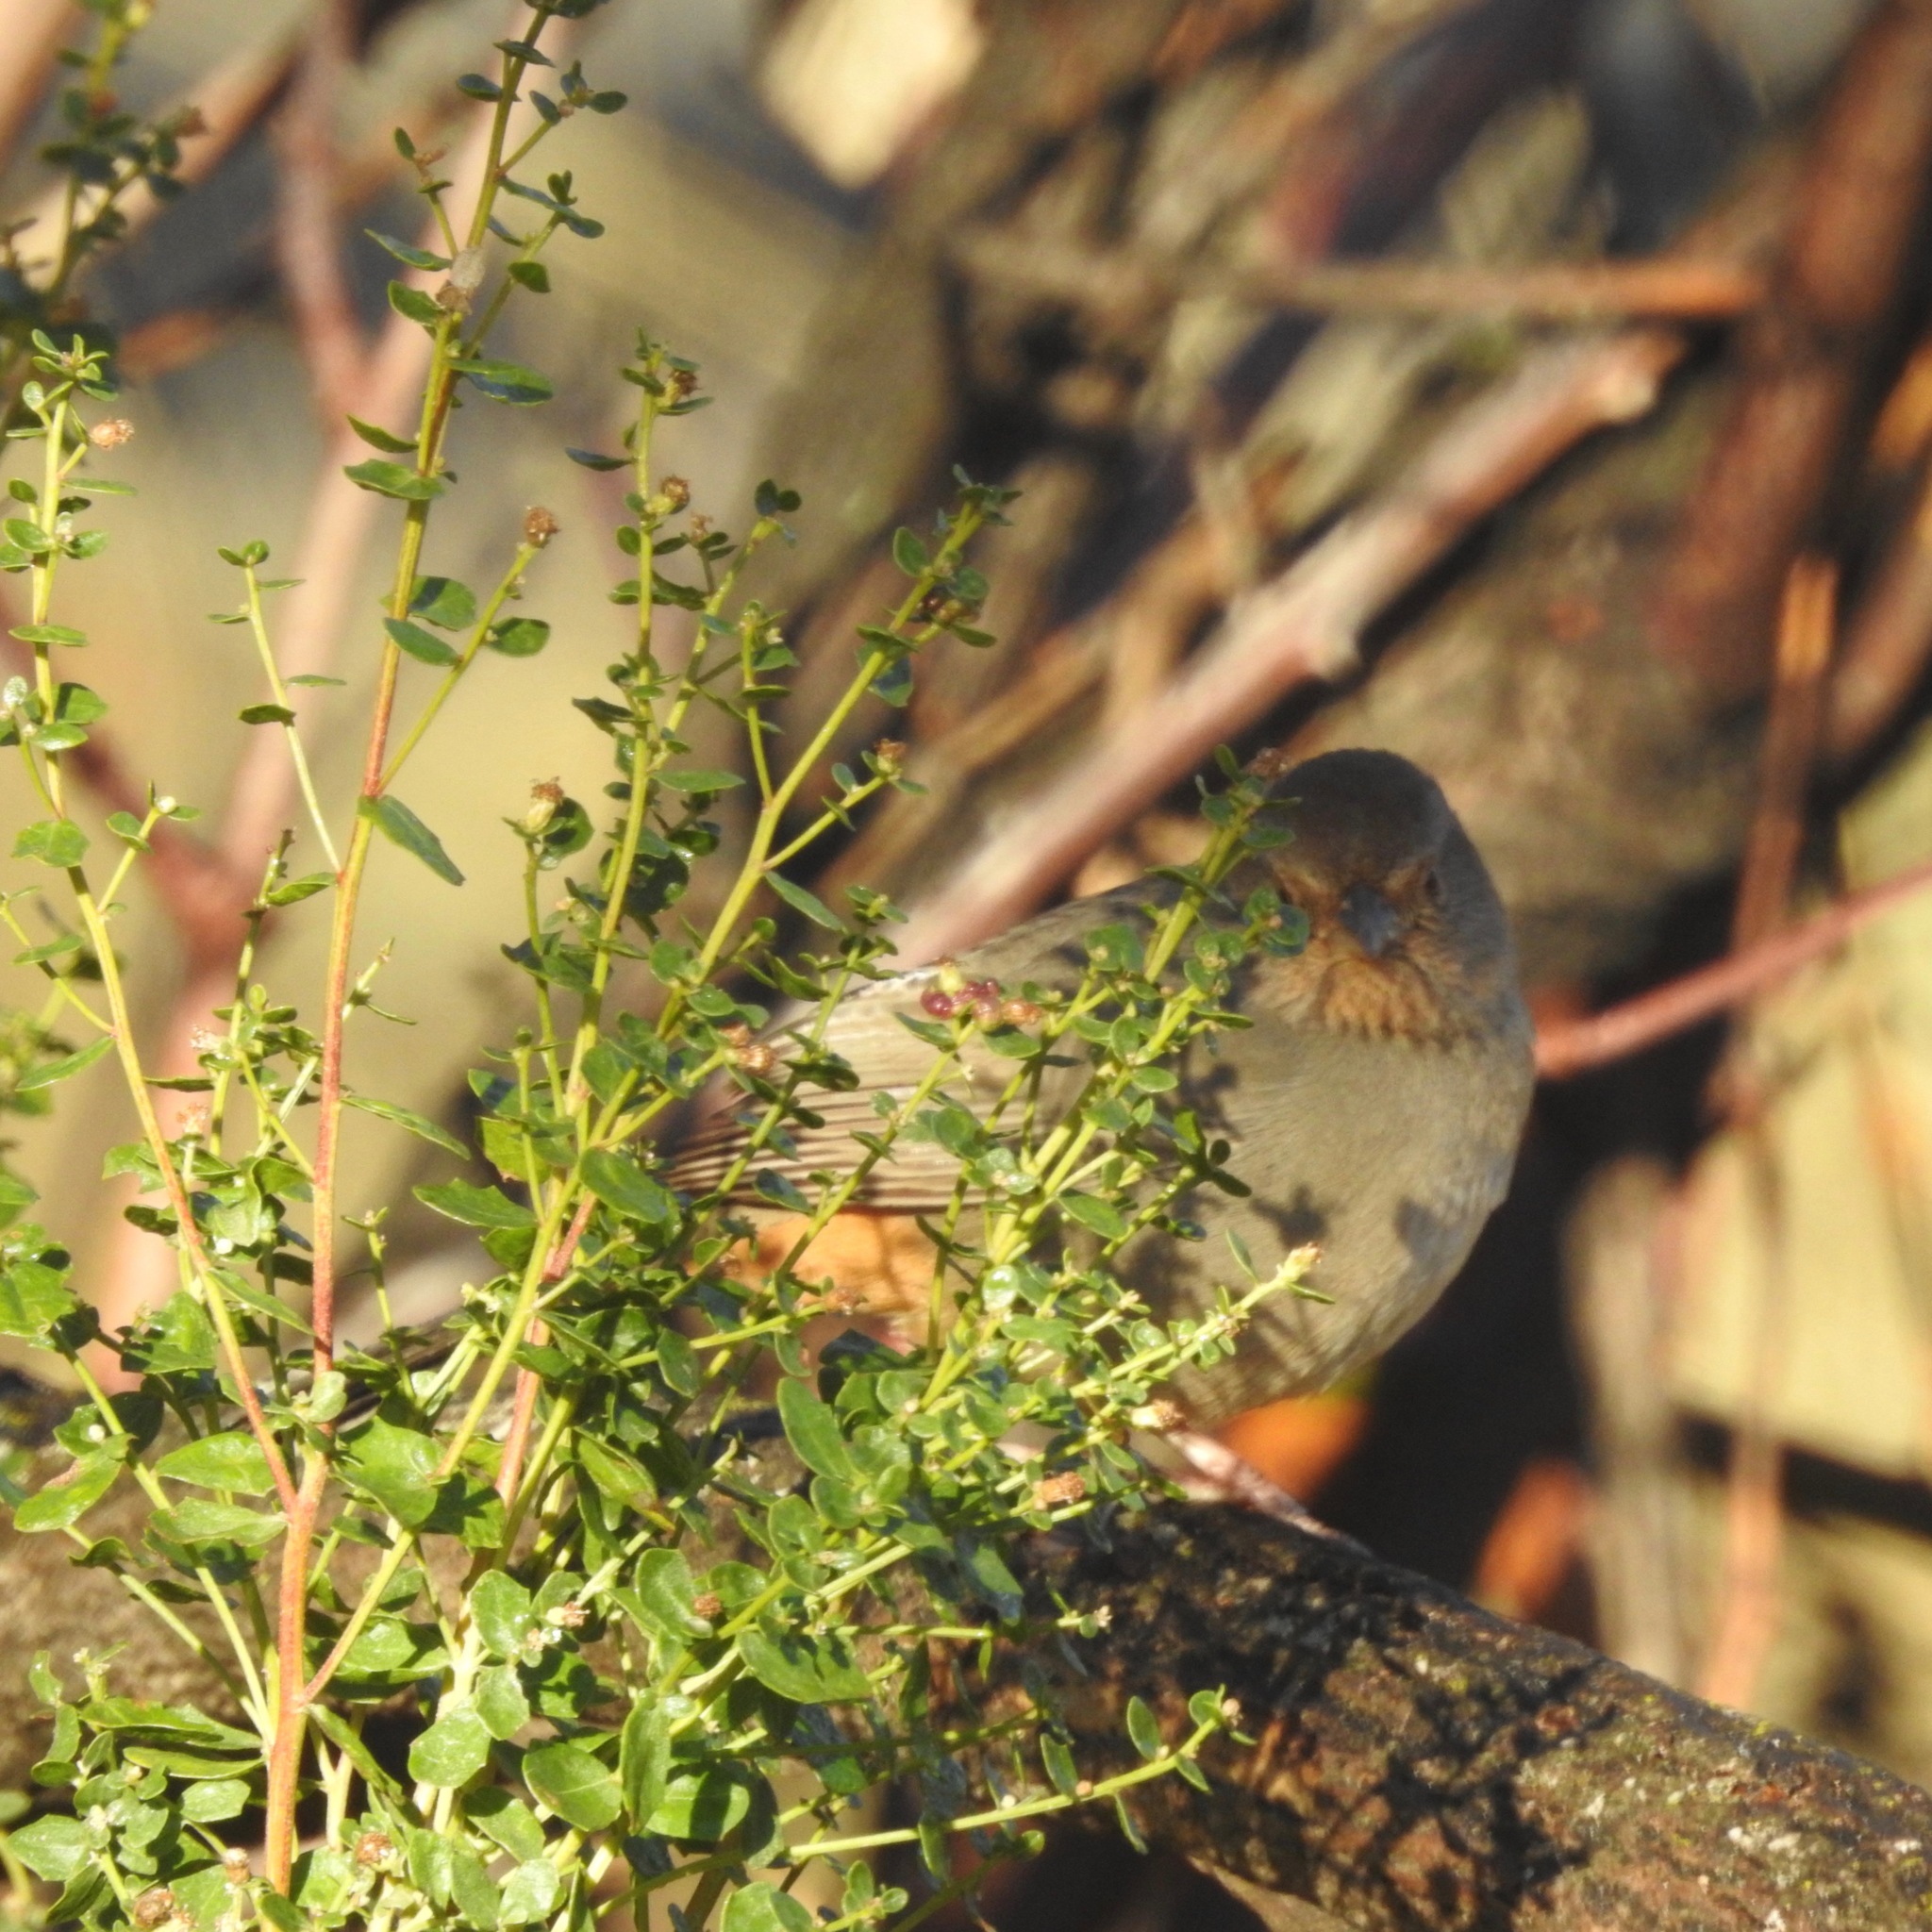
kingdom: Animalia
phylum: Chordata
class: Aves
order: Passeriformes
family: Passerellidae
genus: Melozone
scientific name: Melozone crissalis
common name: California towhee
